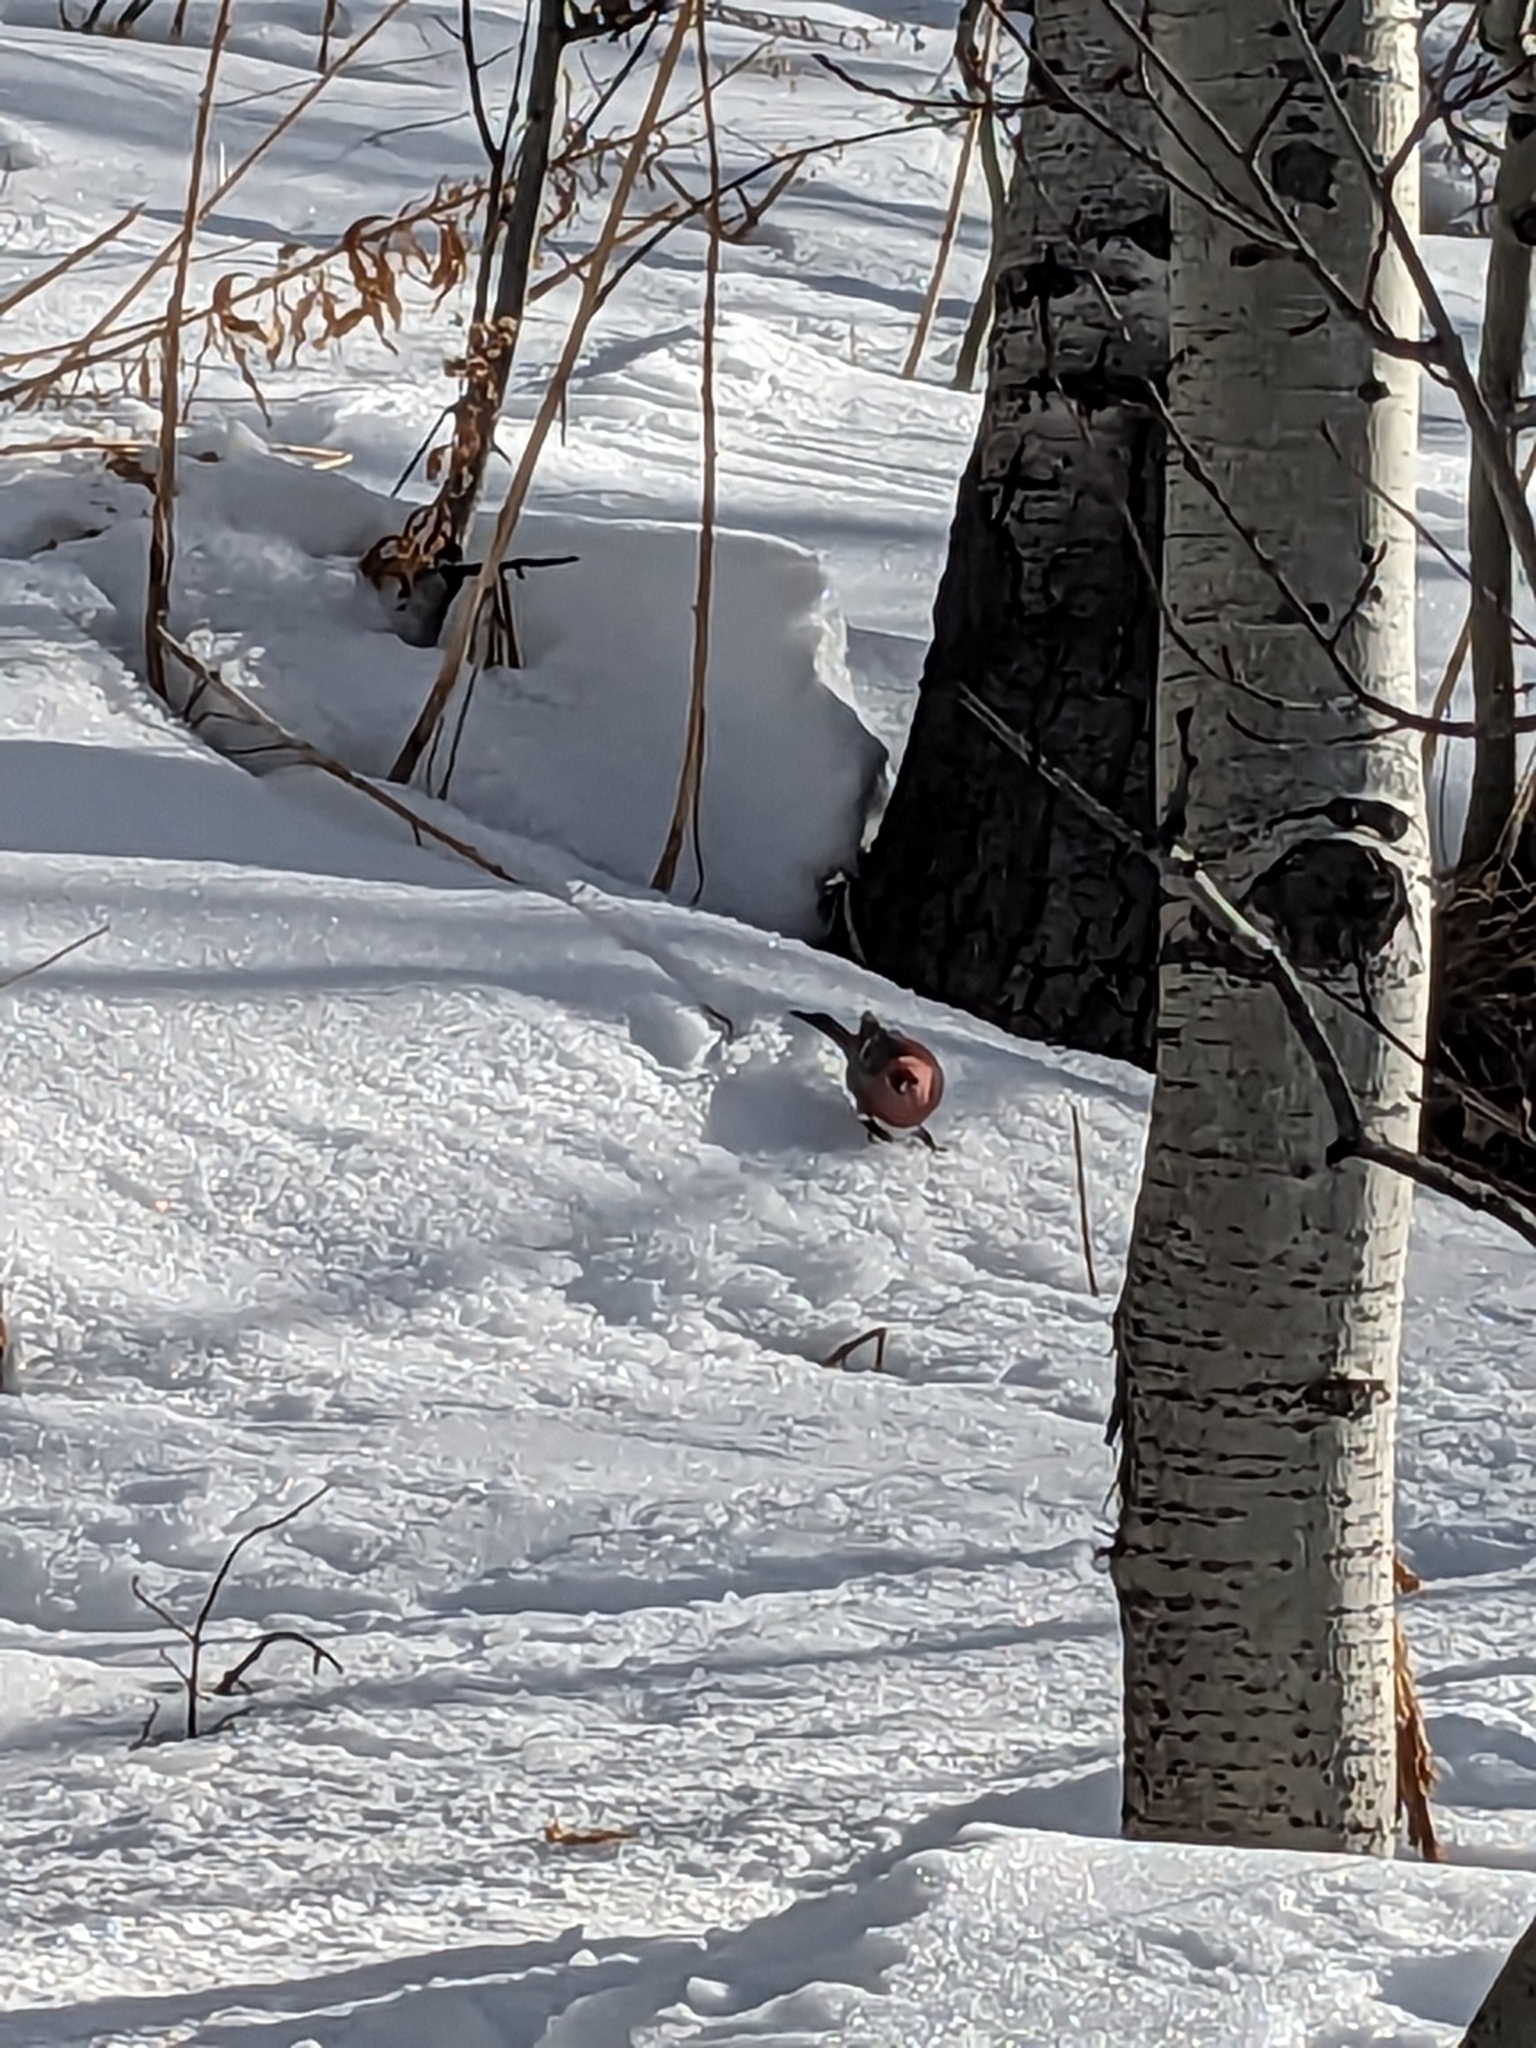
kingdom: Animalia
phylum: Chordata
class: Aves
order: Passeriformes
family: Fringillidae
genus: Pinicola
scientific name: Pinicola enucleator
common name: Pine grosbeak
